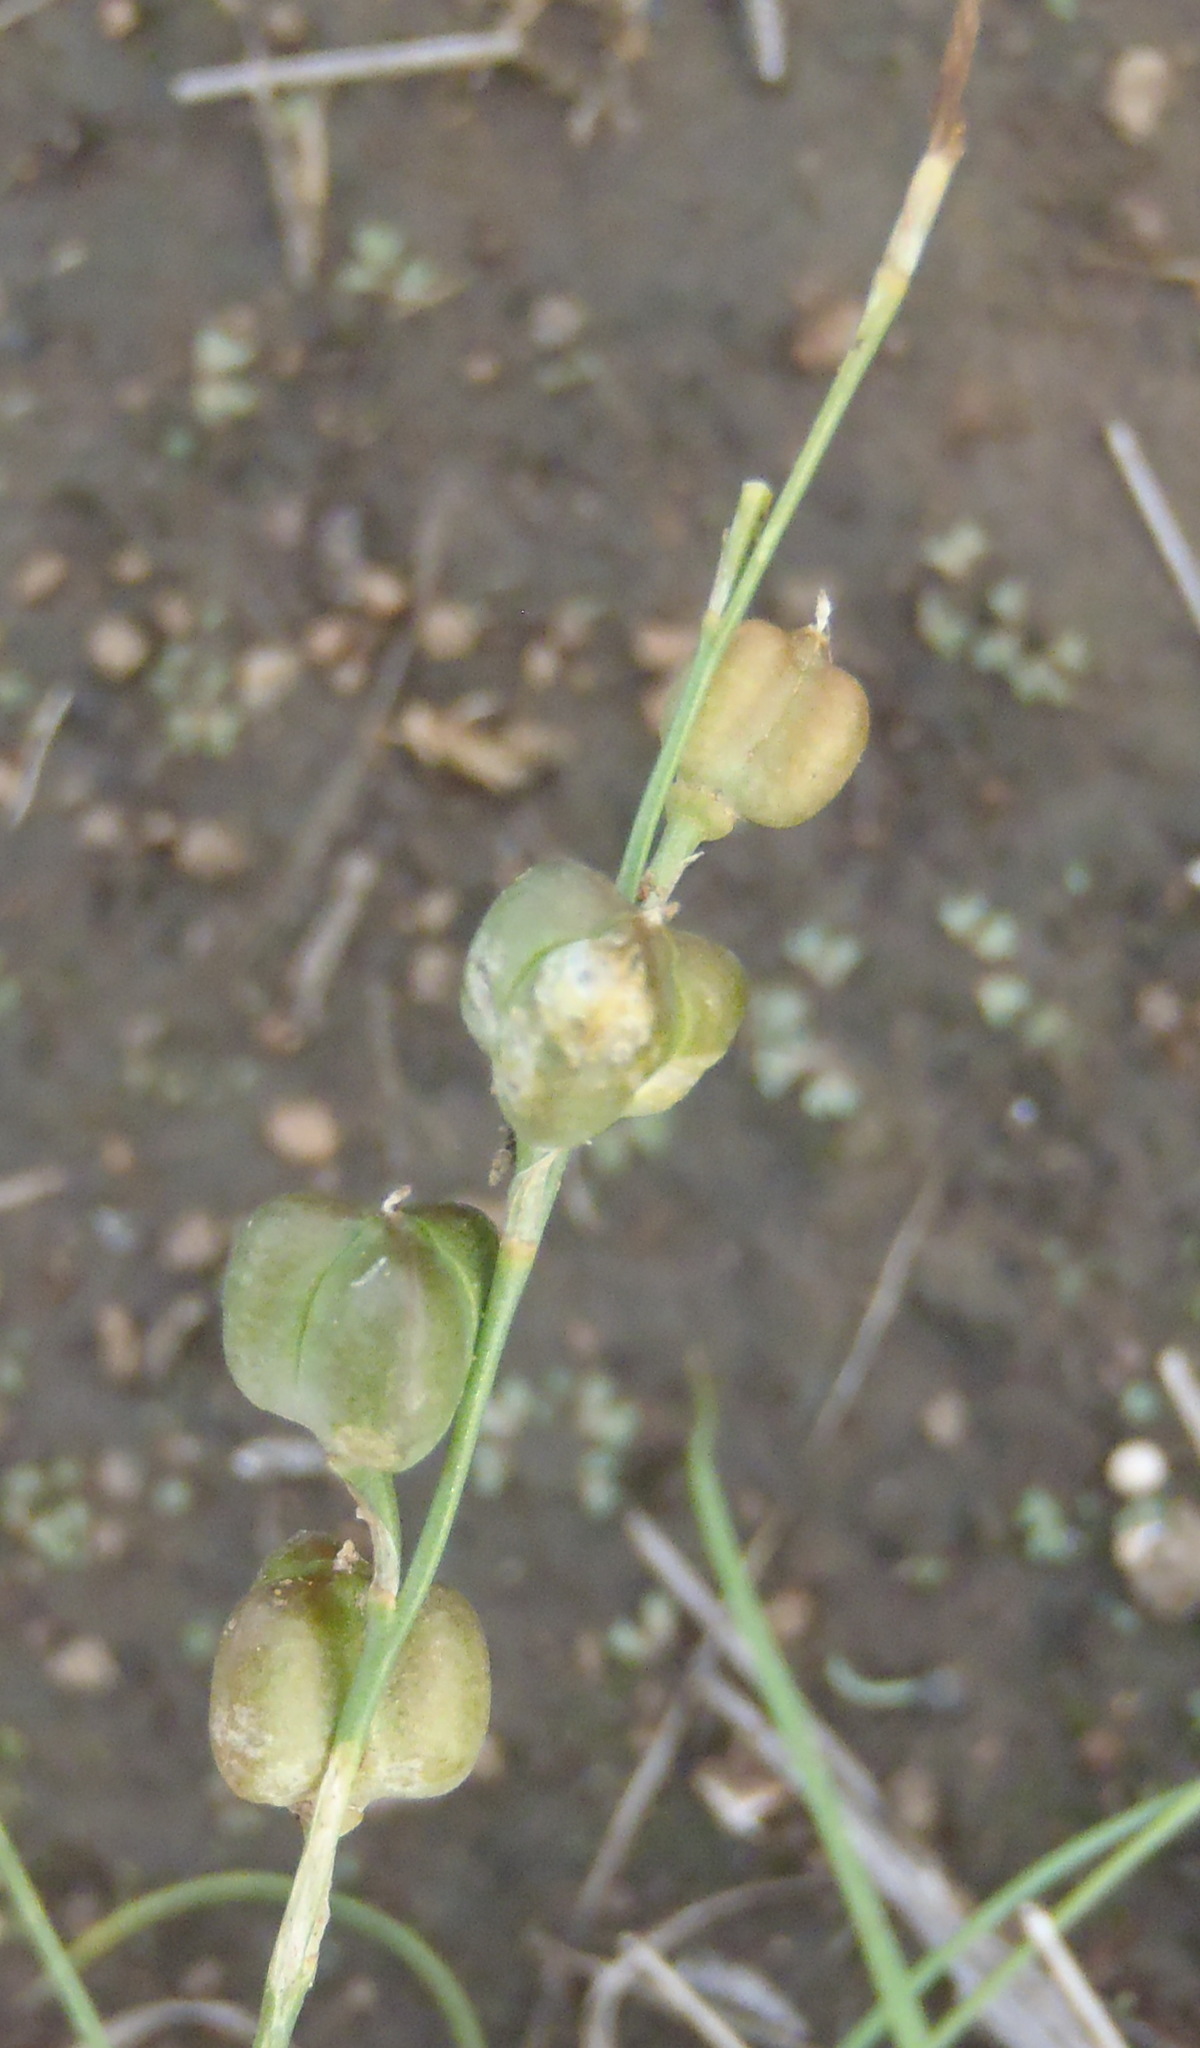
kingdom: Plantae
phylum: Tracheophyta
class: Liliopsida
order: Asparagales
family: Asparagaceae
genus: Dipcadi
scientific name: Dipcadi ciliare
